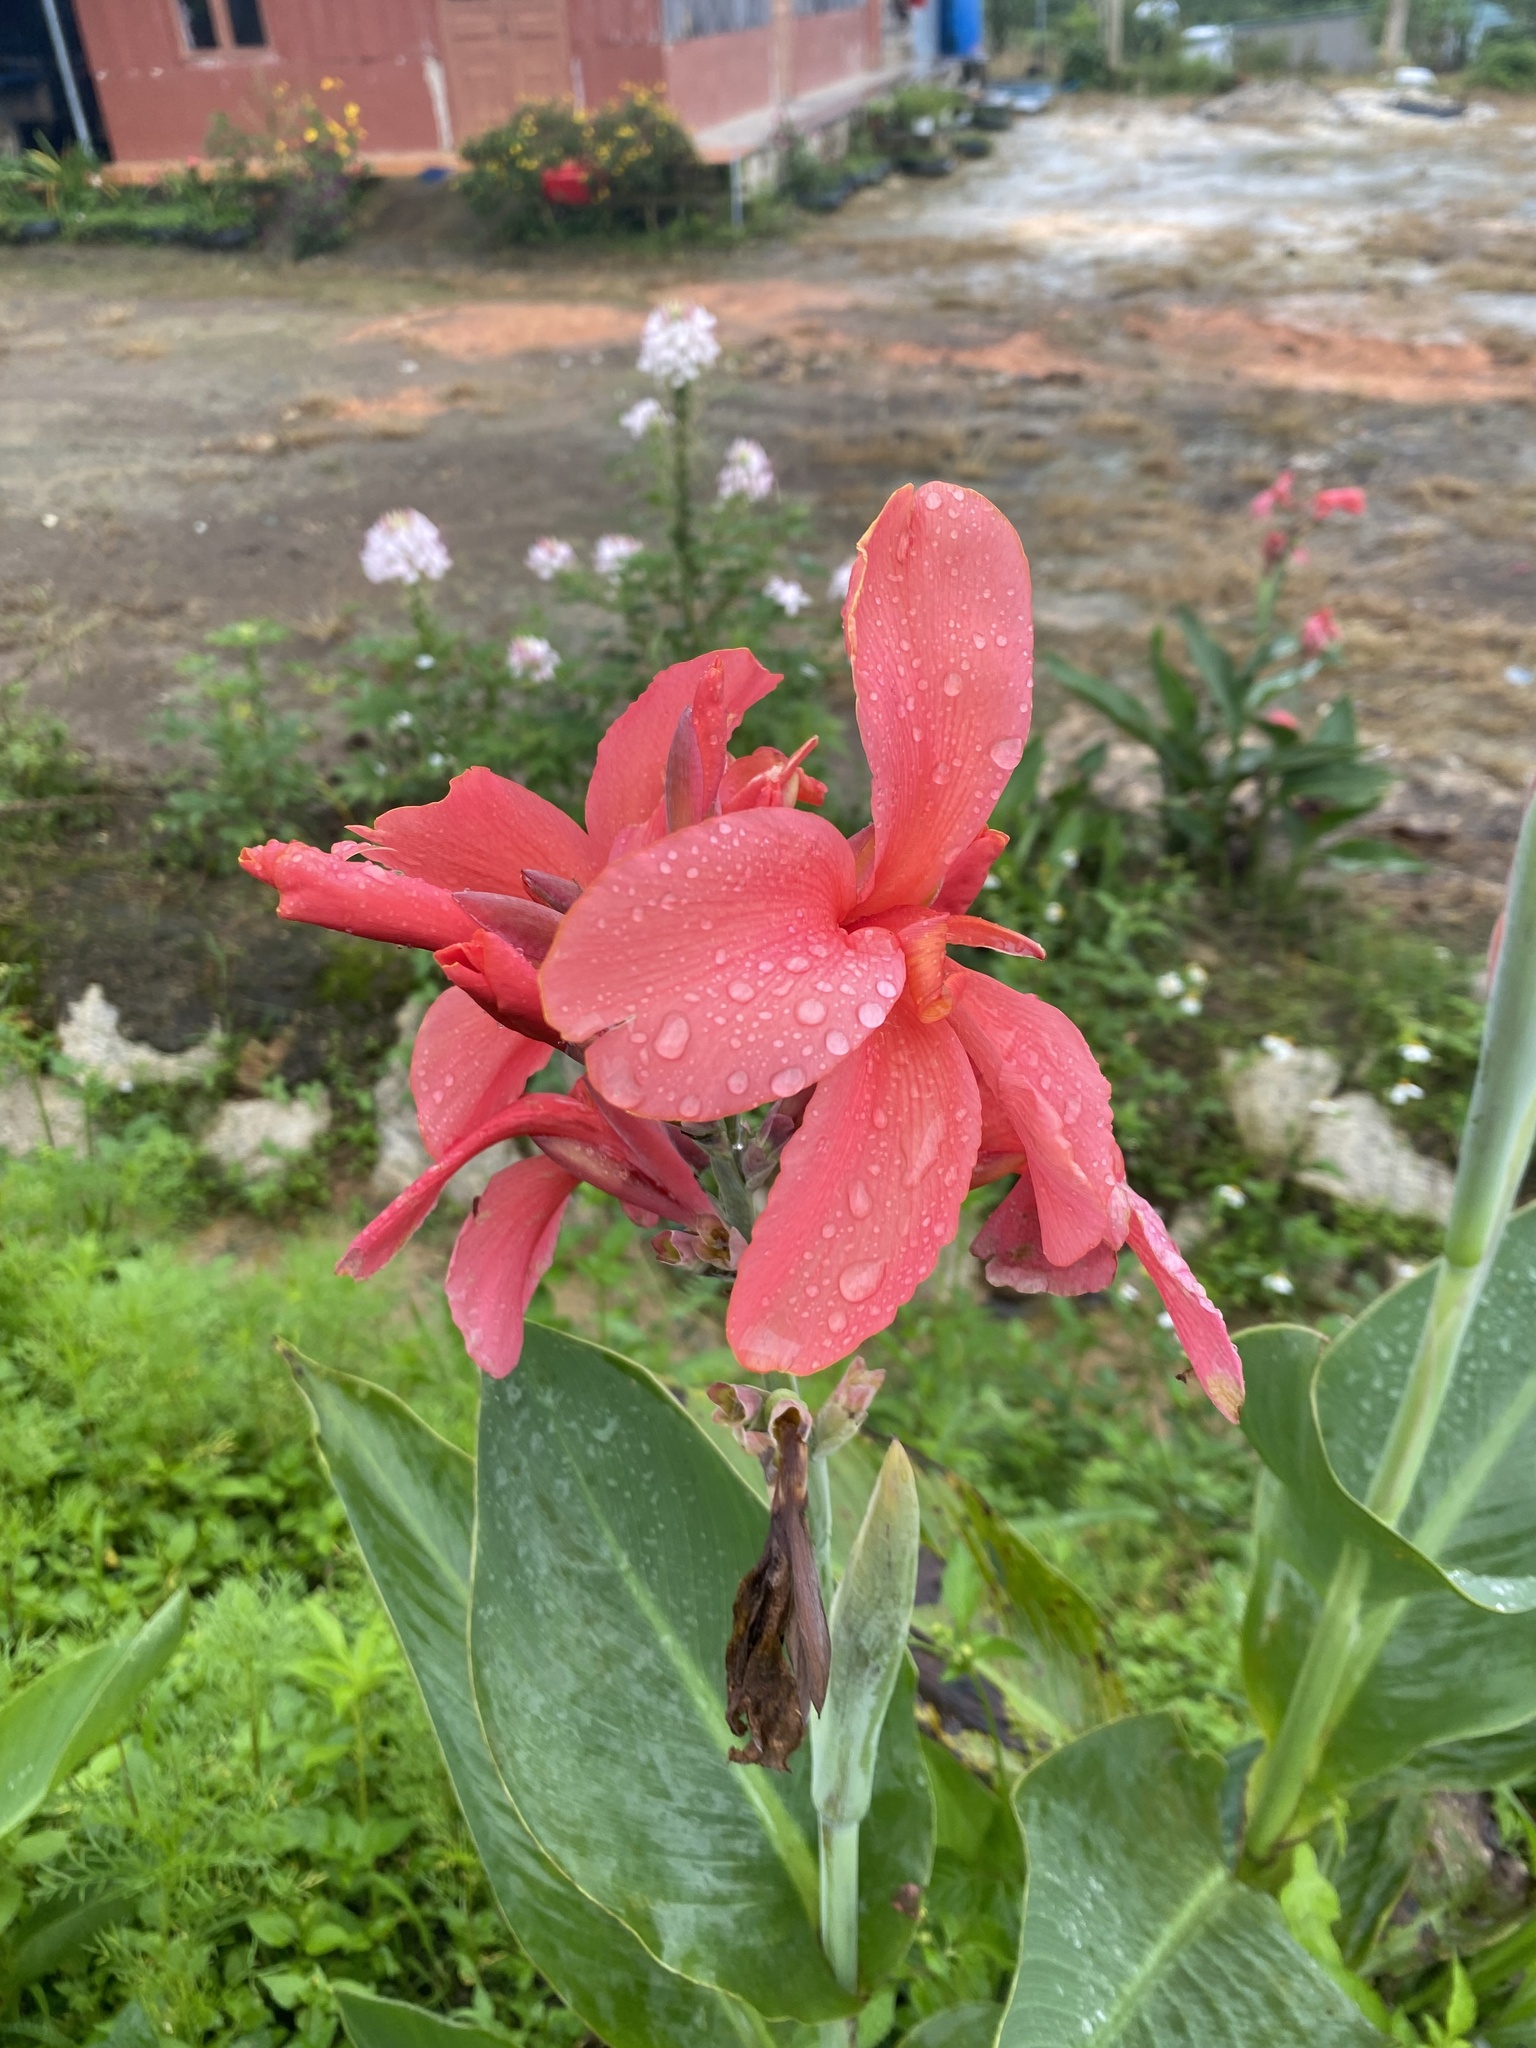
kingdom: Plantae
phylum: Tracheophyta
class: Liliopsida
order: Zingiberales
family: Cannaceae
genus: Canna
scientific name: Canna hybrida
